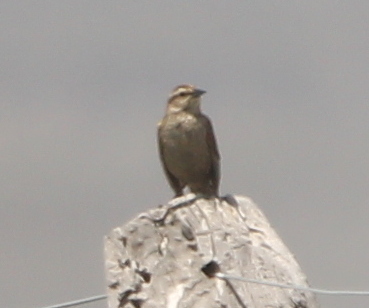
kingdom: Animalia
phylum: Chordata
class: Aves
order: Passeriformes
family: Icteridae
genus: Agelasticus
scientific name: Agelasticus thilius
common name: Yellow-winged blackbird
